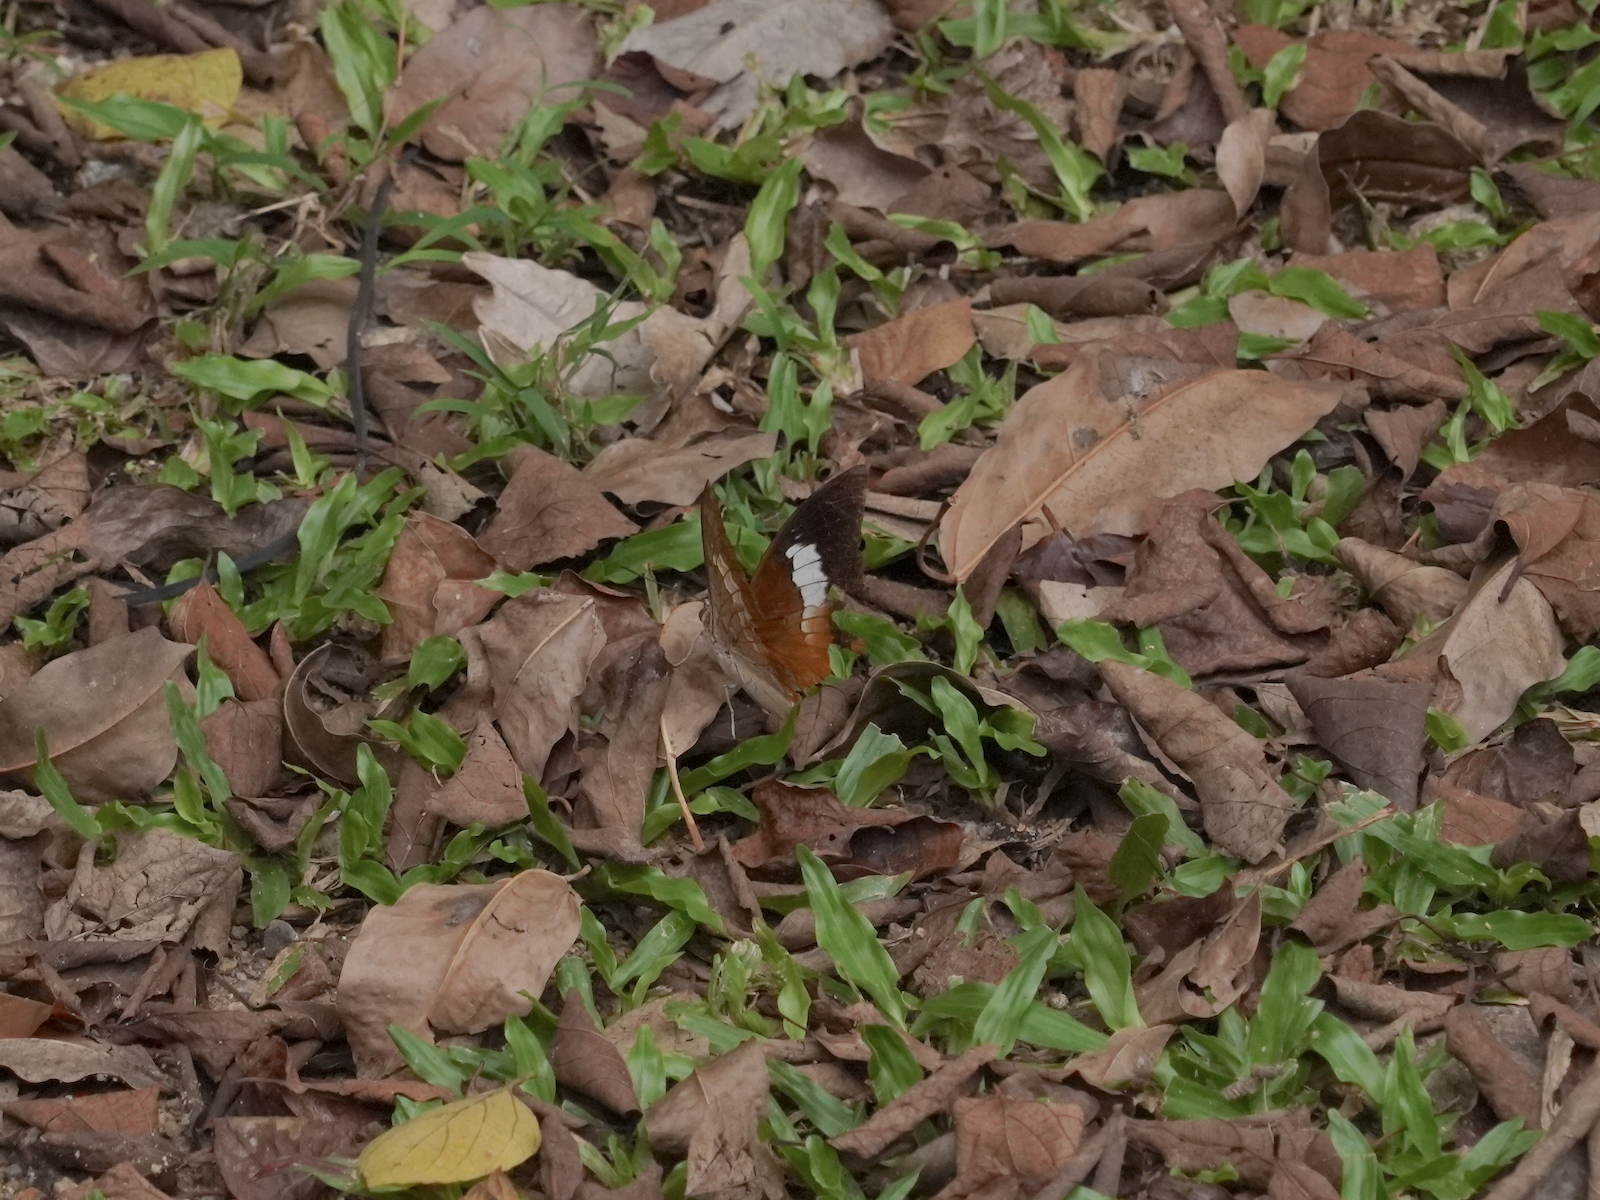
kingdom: Animalia
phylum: Arthropoda
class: Insecta
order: Lepidoptera
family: Nymphalidae
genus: Charaxes
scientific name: Charaxes bernardus
